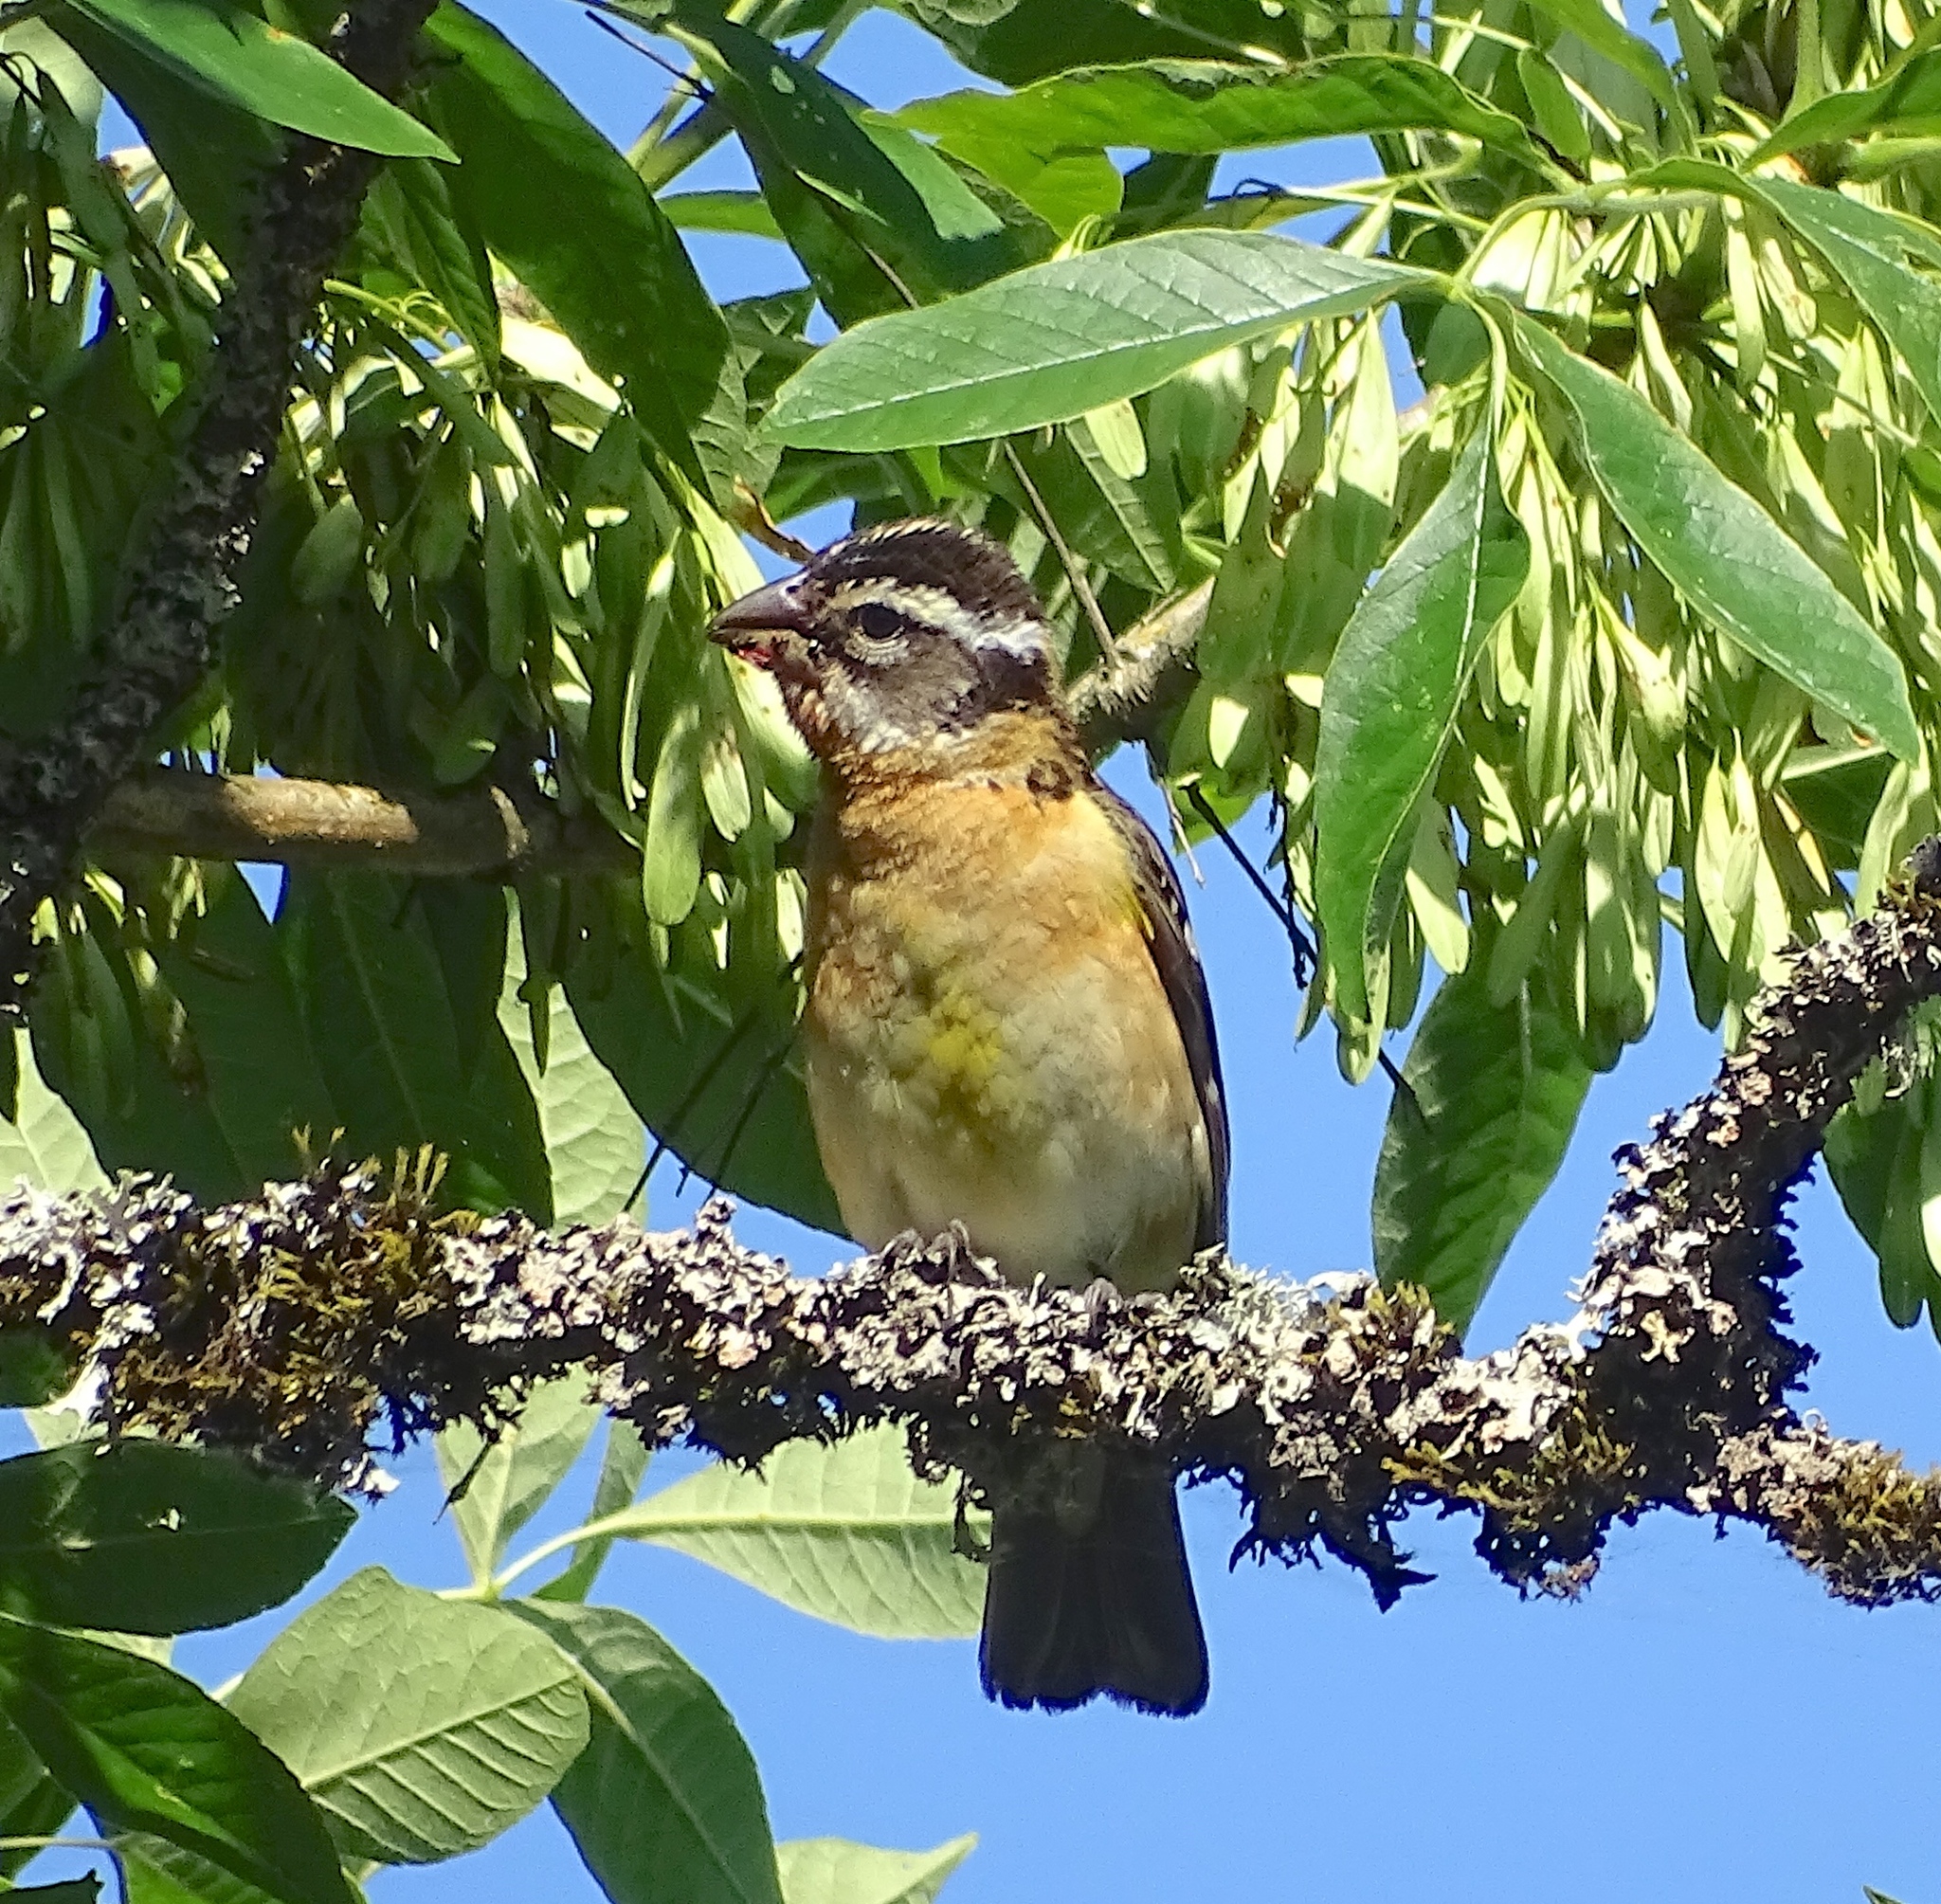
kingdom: Animalia
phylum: Chordata
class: Aves
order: Passeriformes
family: Cardinalidae
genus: Pheucticus
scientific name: Pheucticus melanocephalus
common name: Black-headed grosbeak
